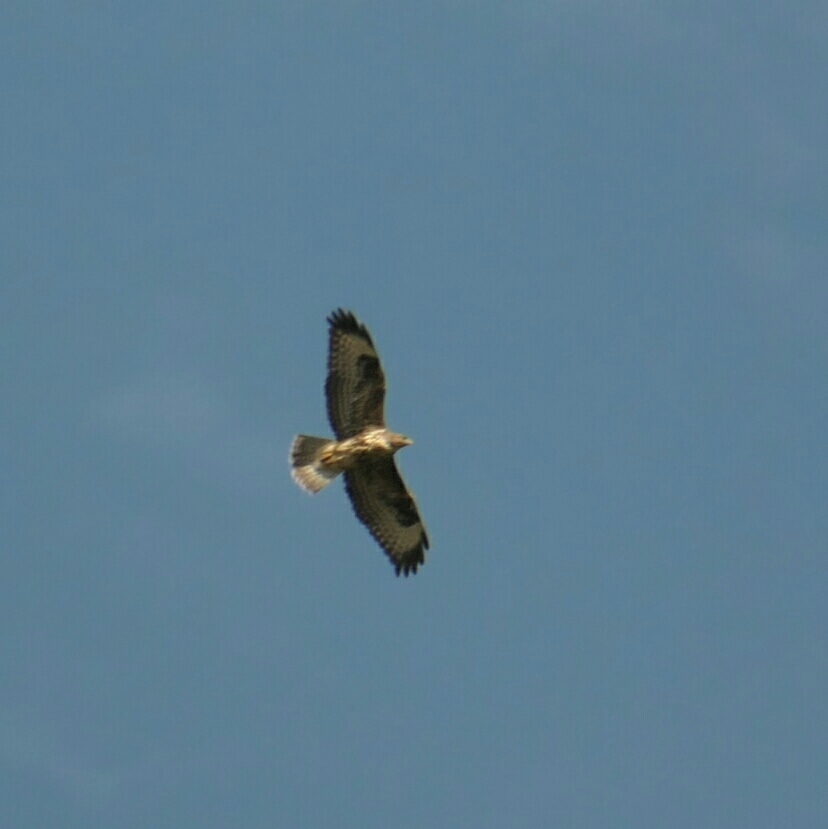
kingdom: Animalia
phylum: Chordata
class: Aves
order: Accipitriformes
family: Accipitridae
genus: Buteo
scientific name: Buteo buteo
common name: Common buzzard
